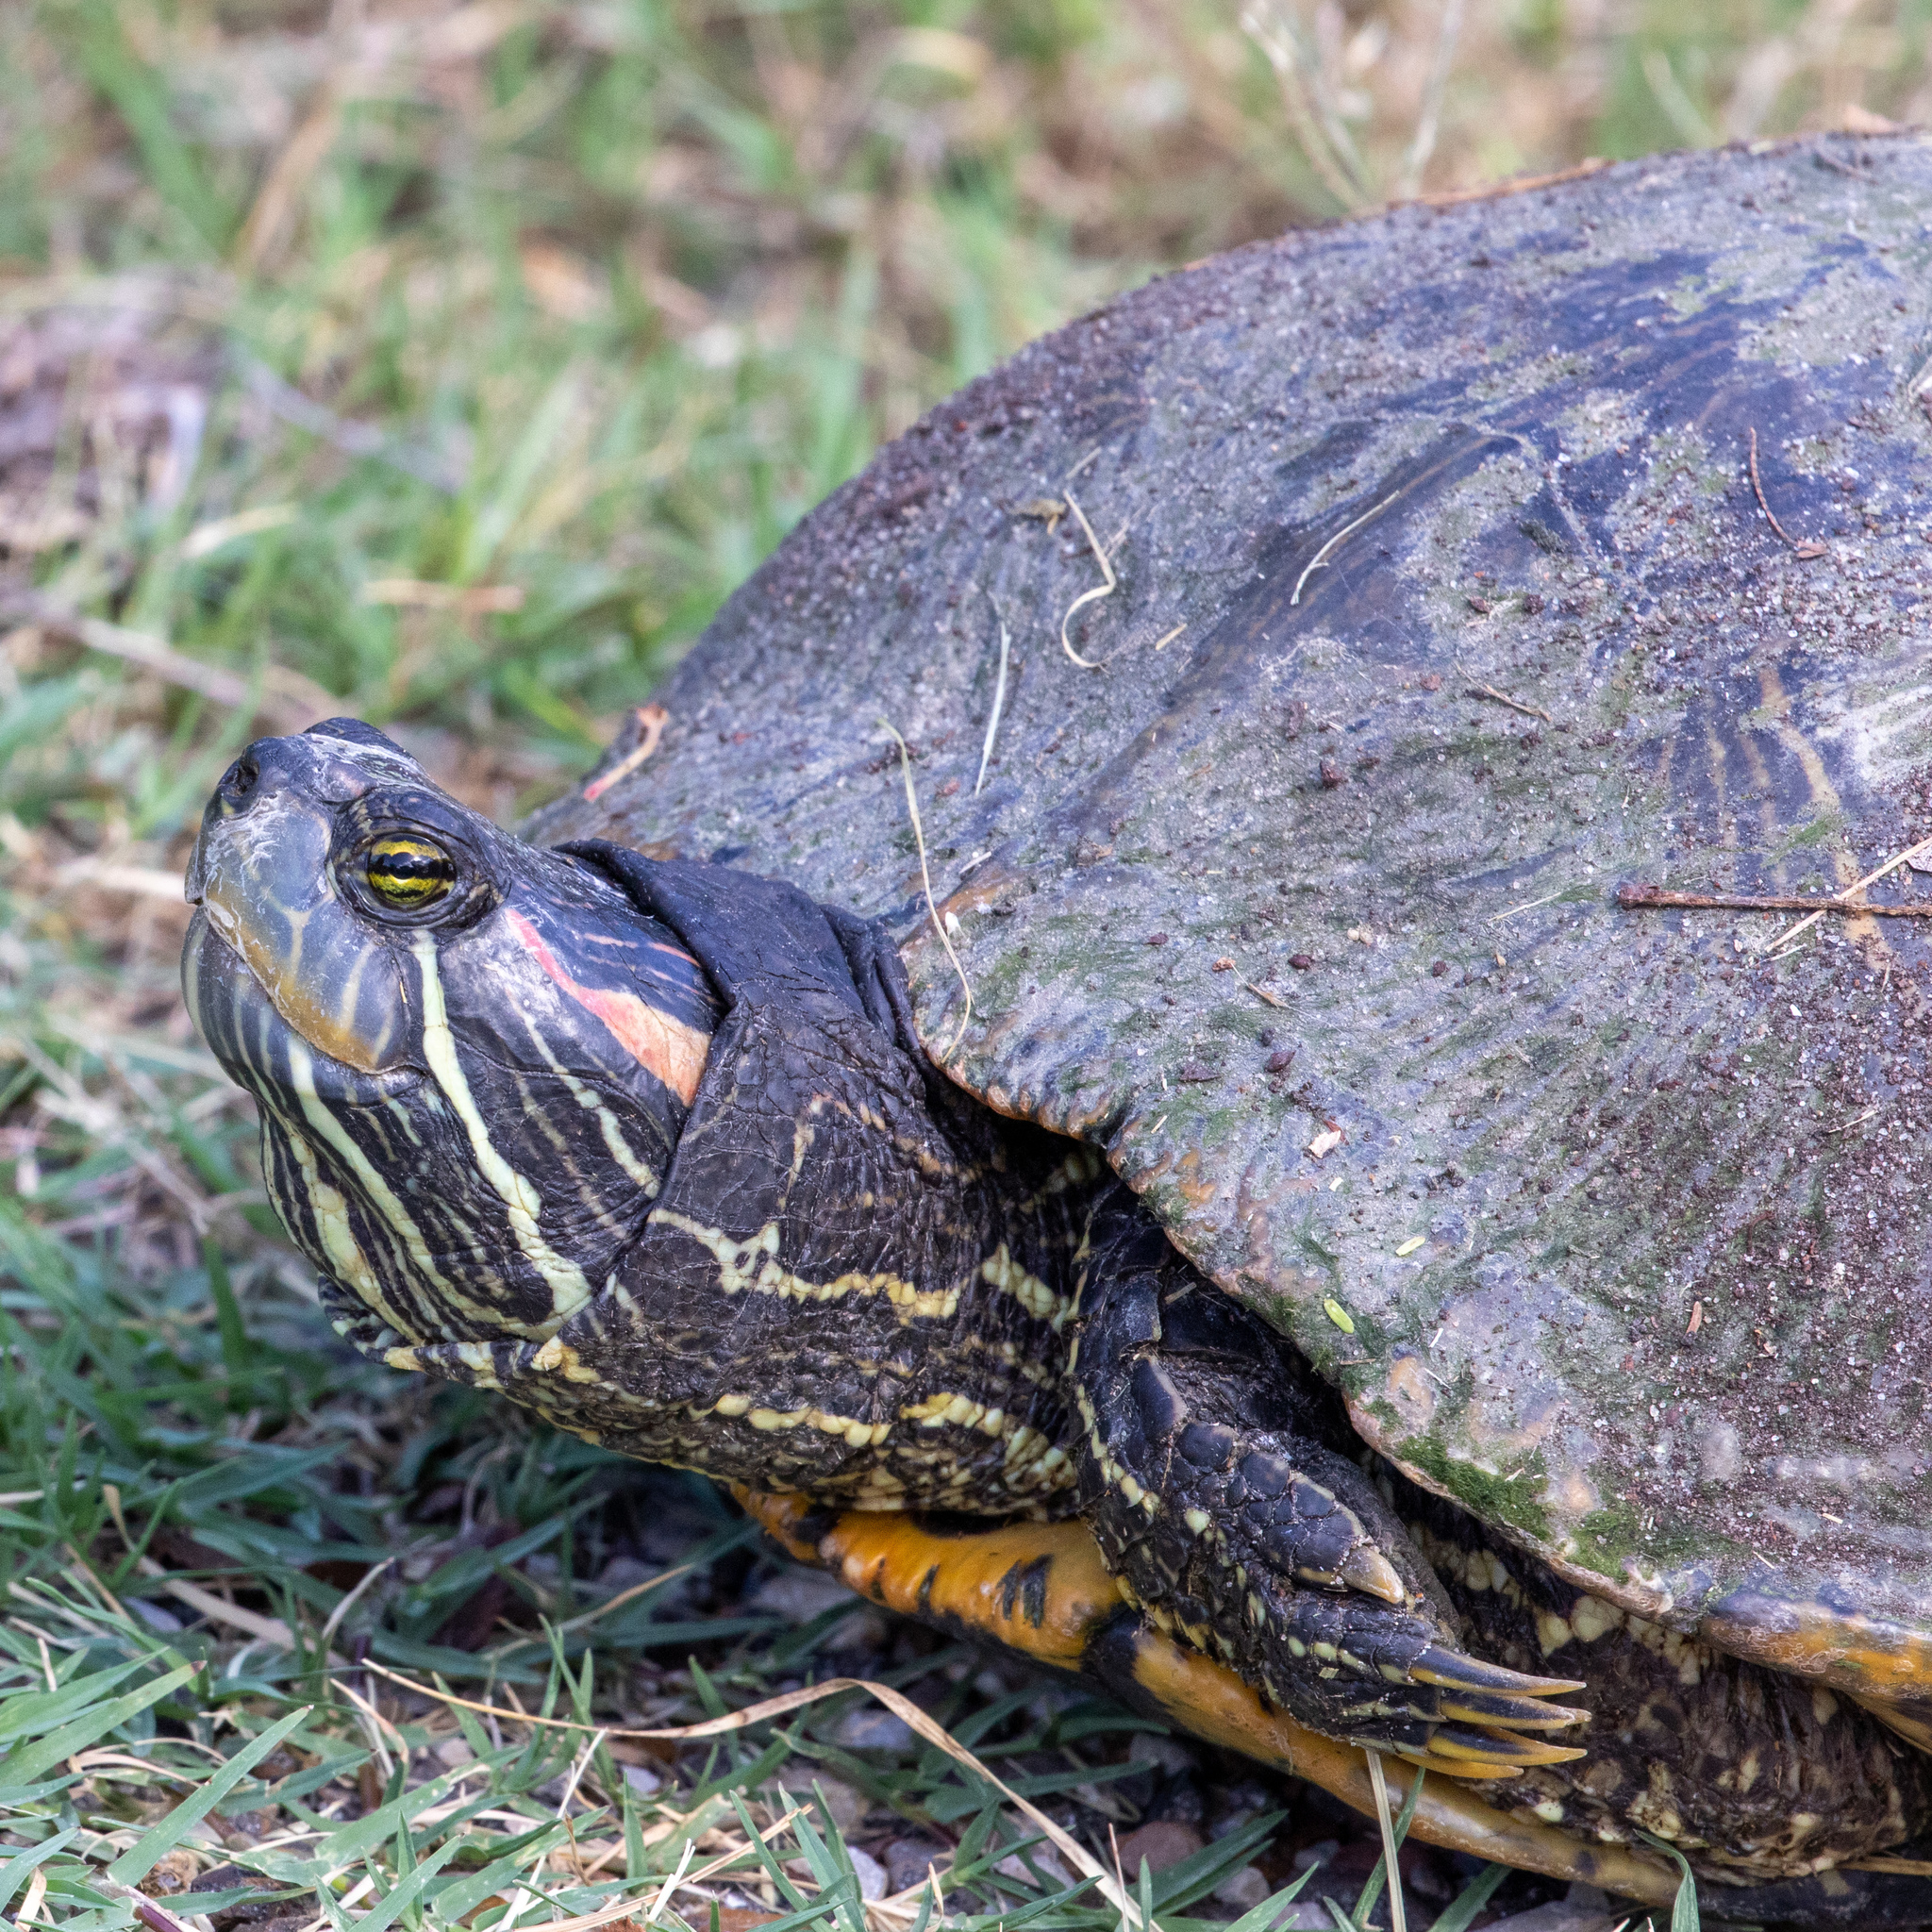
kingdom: Animalia
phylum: Chordata
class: Testudines
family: Emydidae
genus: Trachemys
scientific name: Trachemys scripta
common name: Slider
